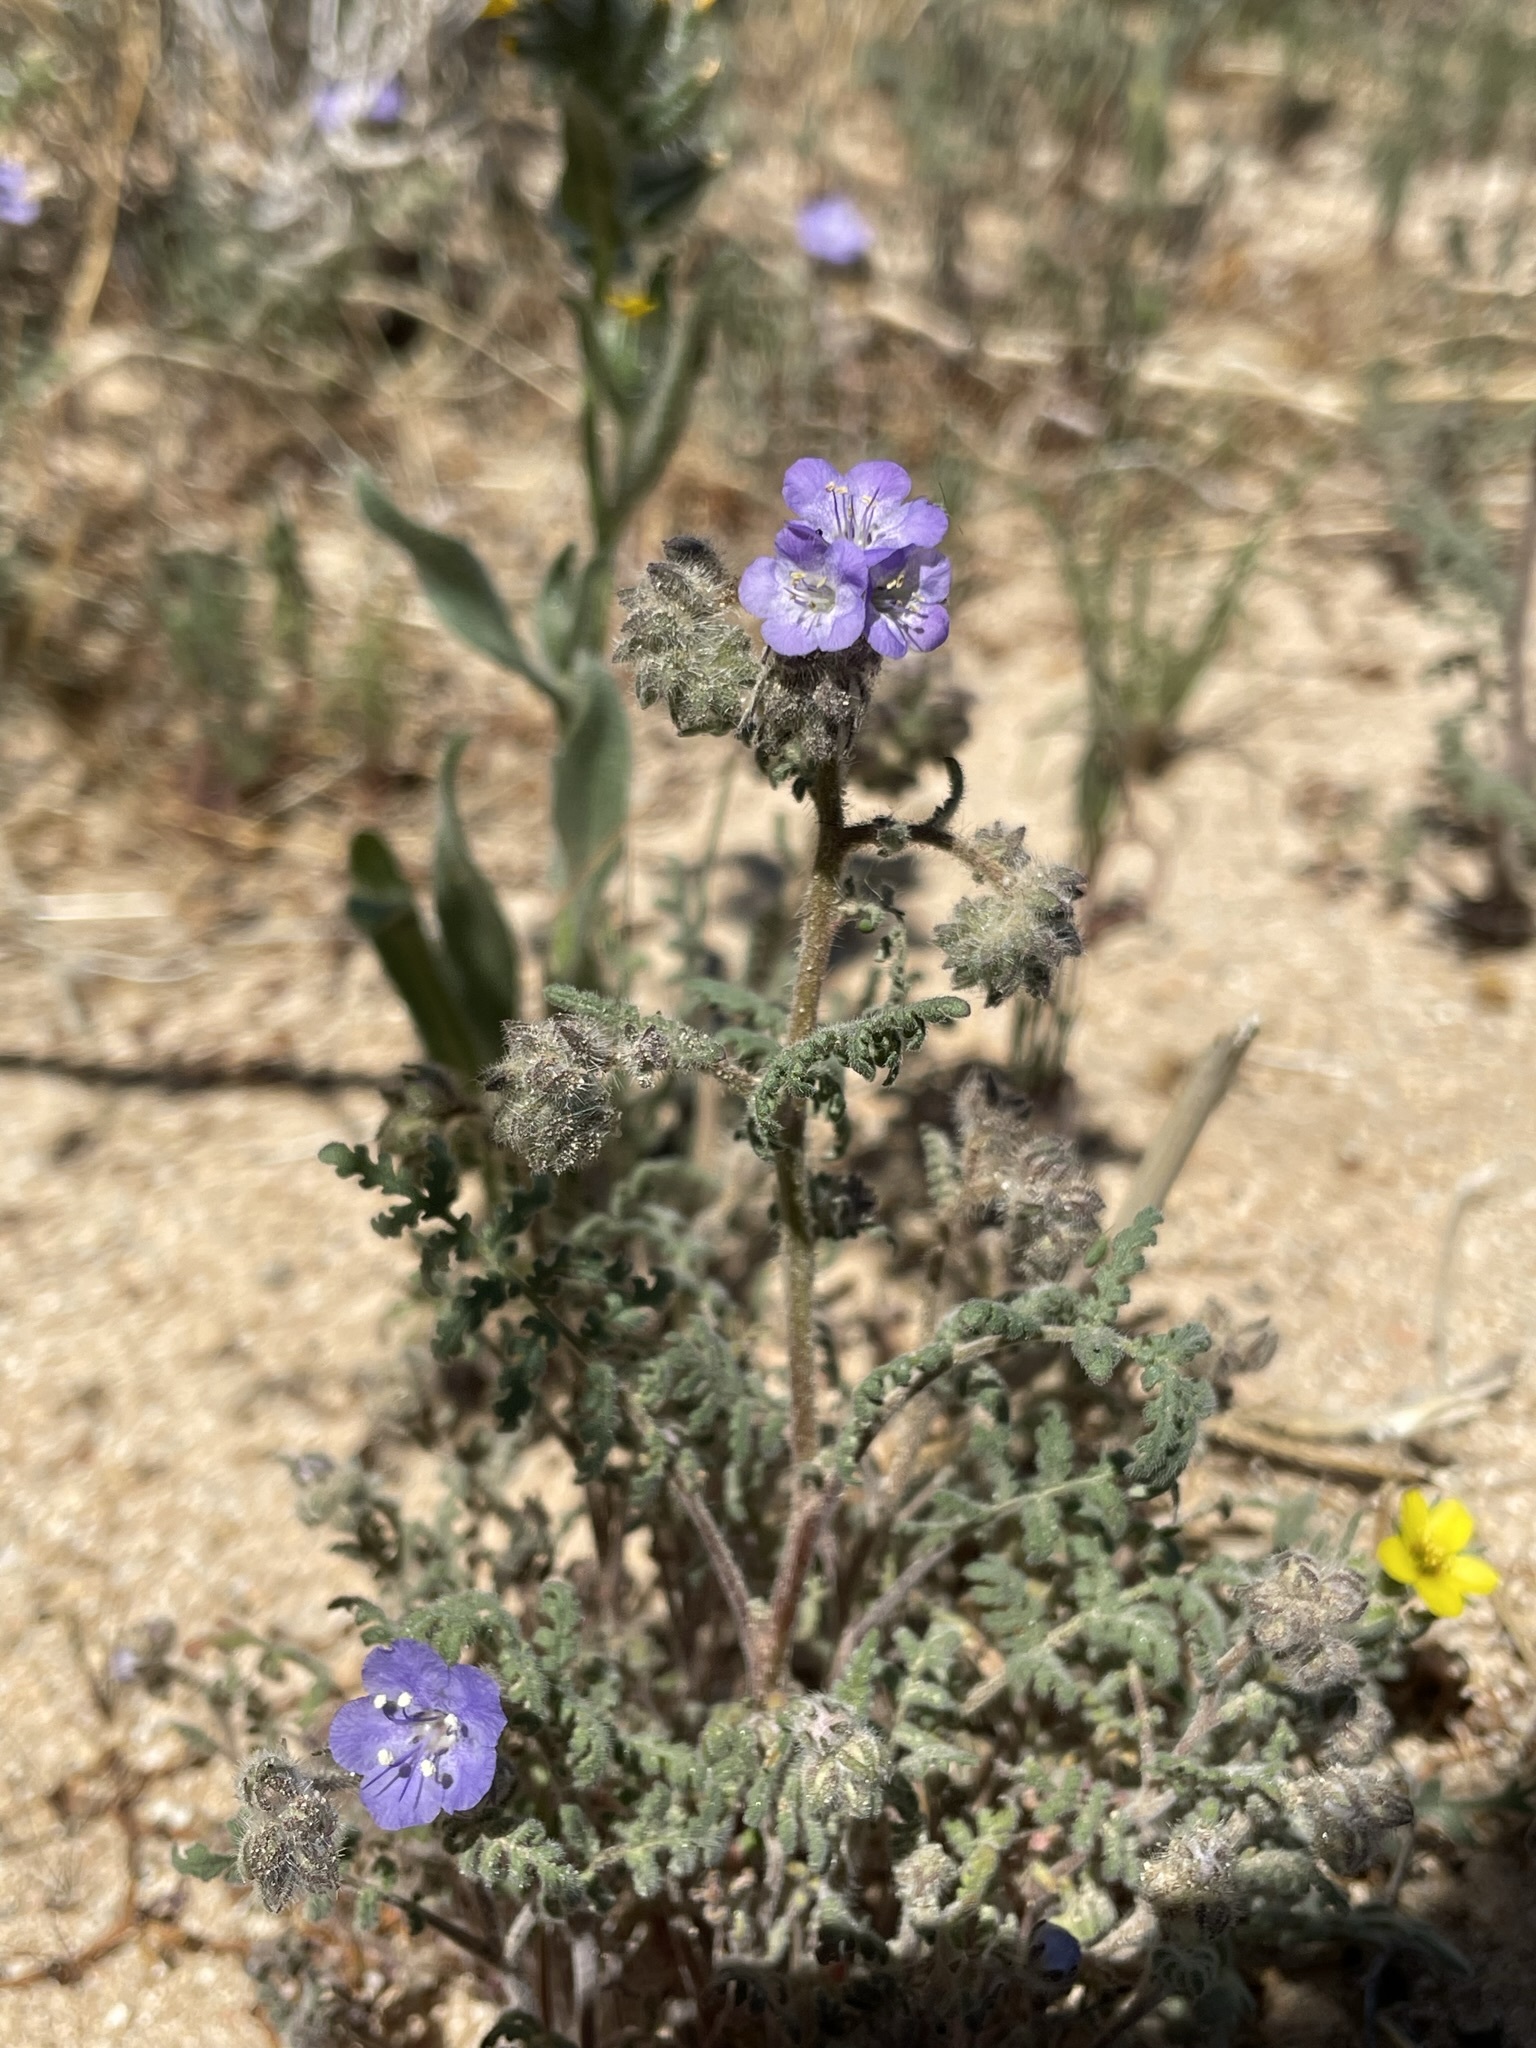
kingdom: Plantae
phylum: Tracheophyta
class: Magnoliopsida
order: Boraginales
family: Hydrophyllaceae
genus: Phacelia
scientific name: Phacelia distans
